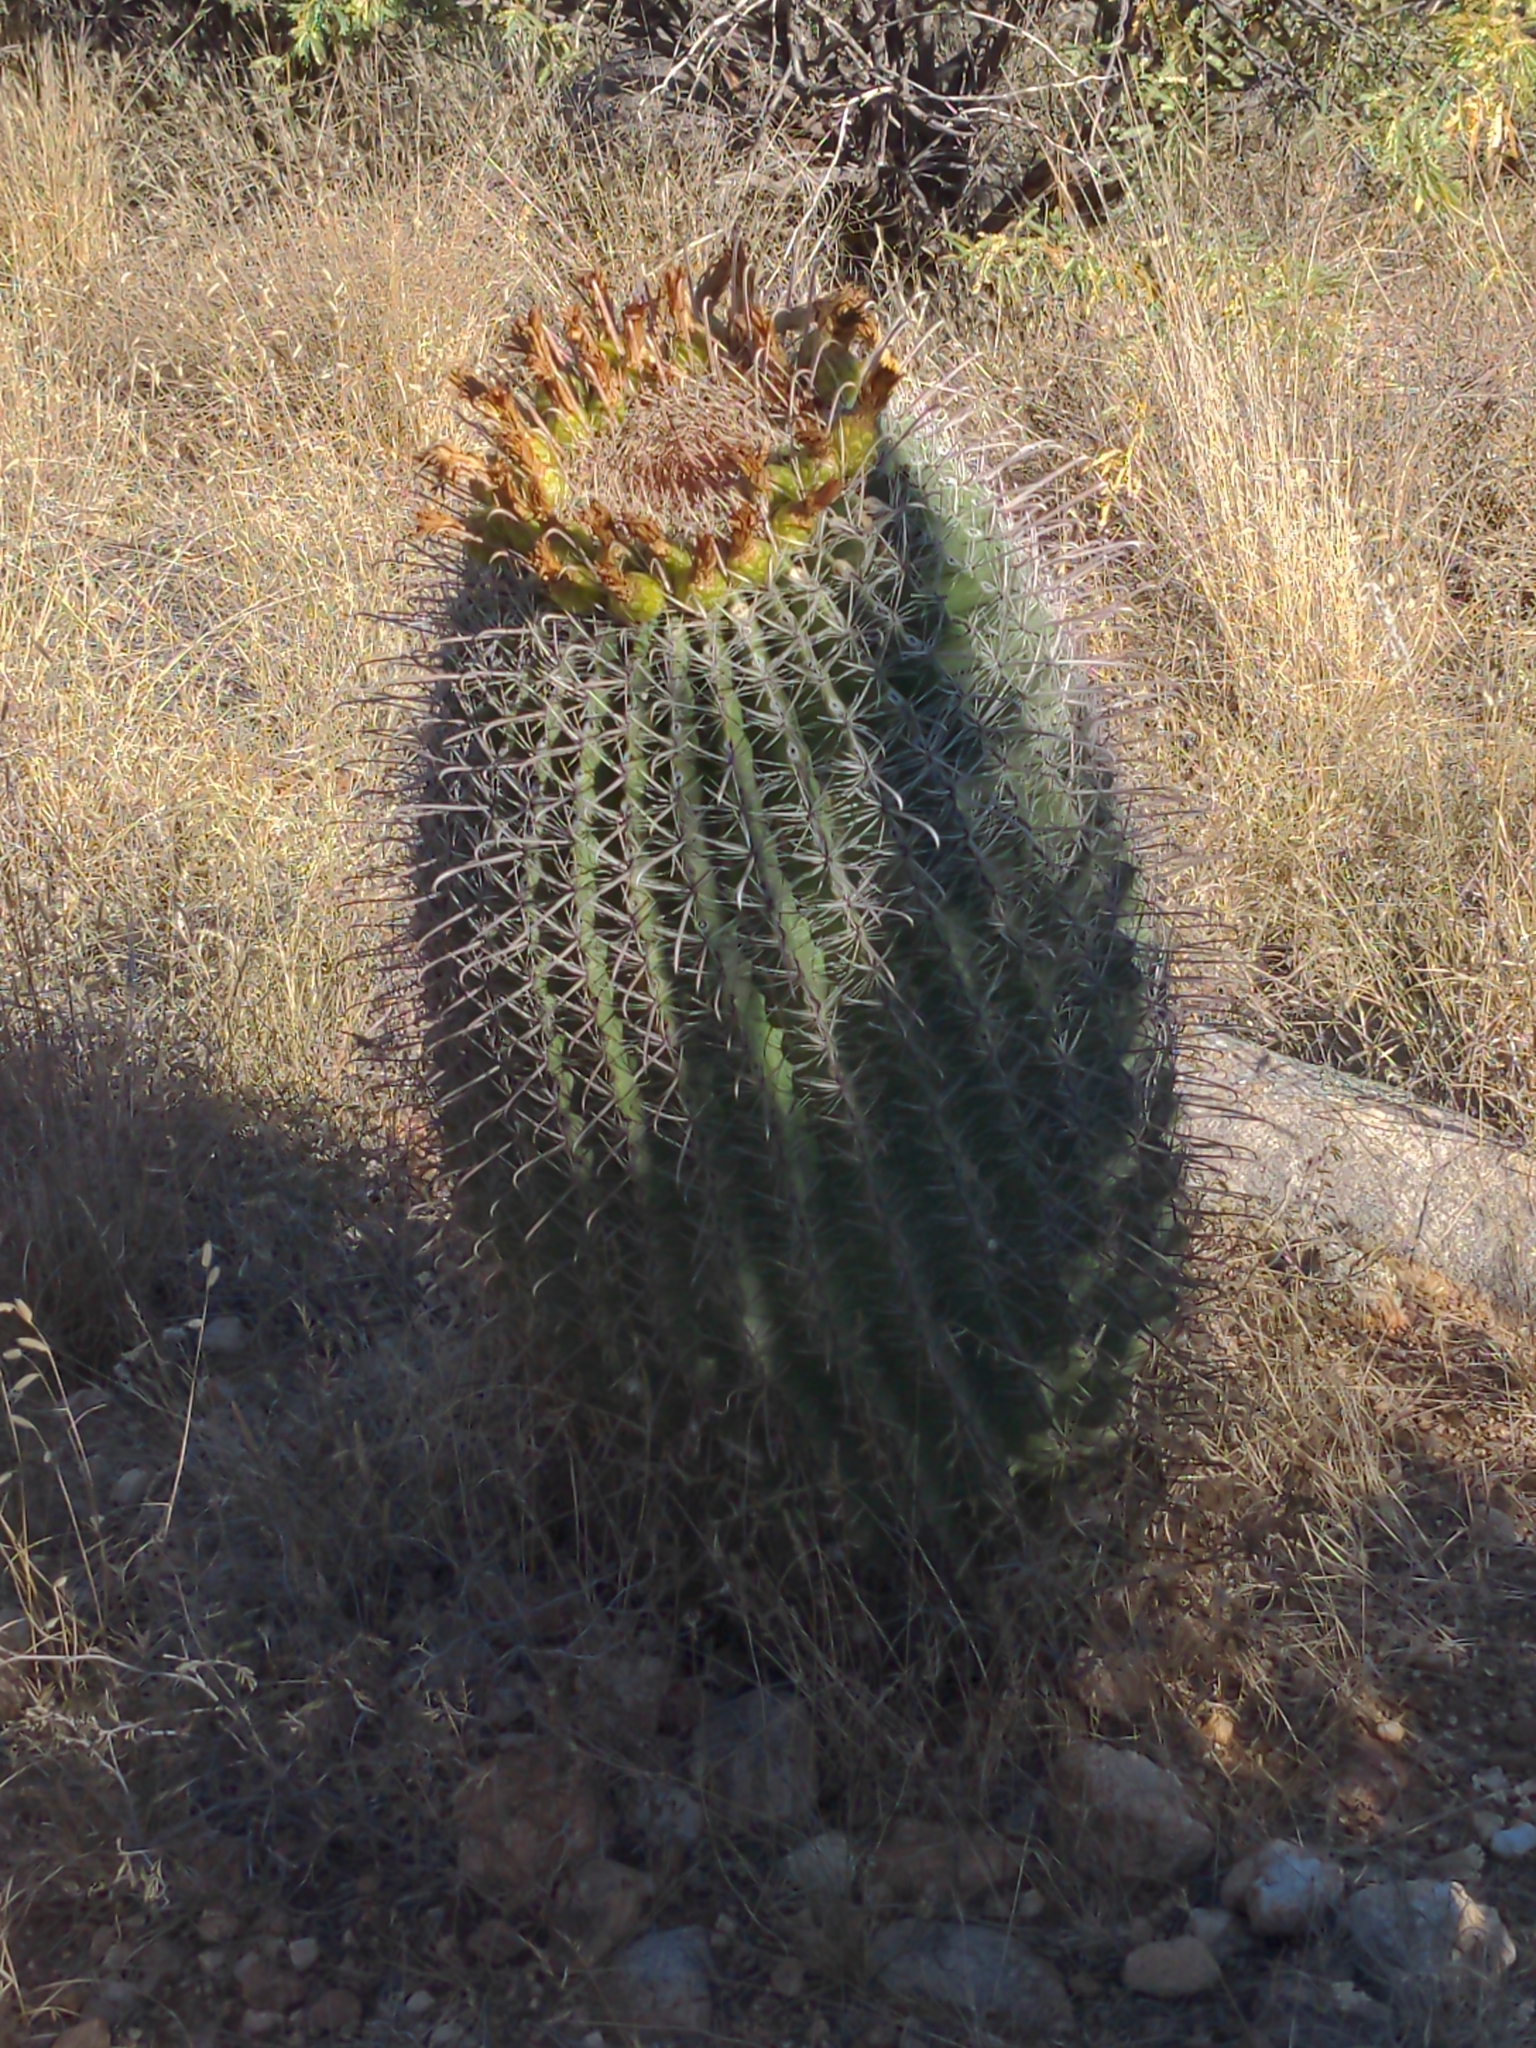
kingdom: Plantae
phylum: Tracheophyta
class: Magnoliopsida
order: Caryophyllales
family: Cactaceae
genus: Ferocactus
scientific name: Ferocactus wislizeni
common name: Candy barrel cactus
